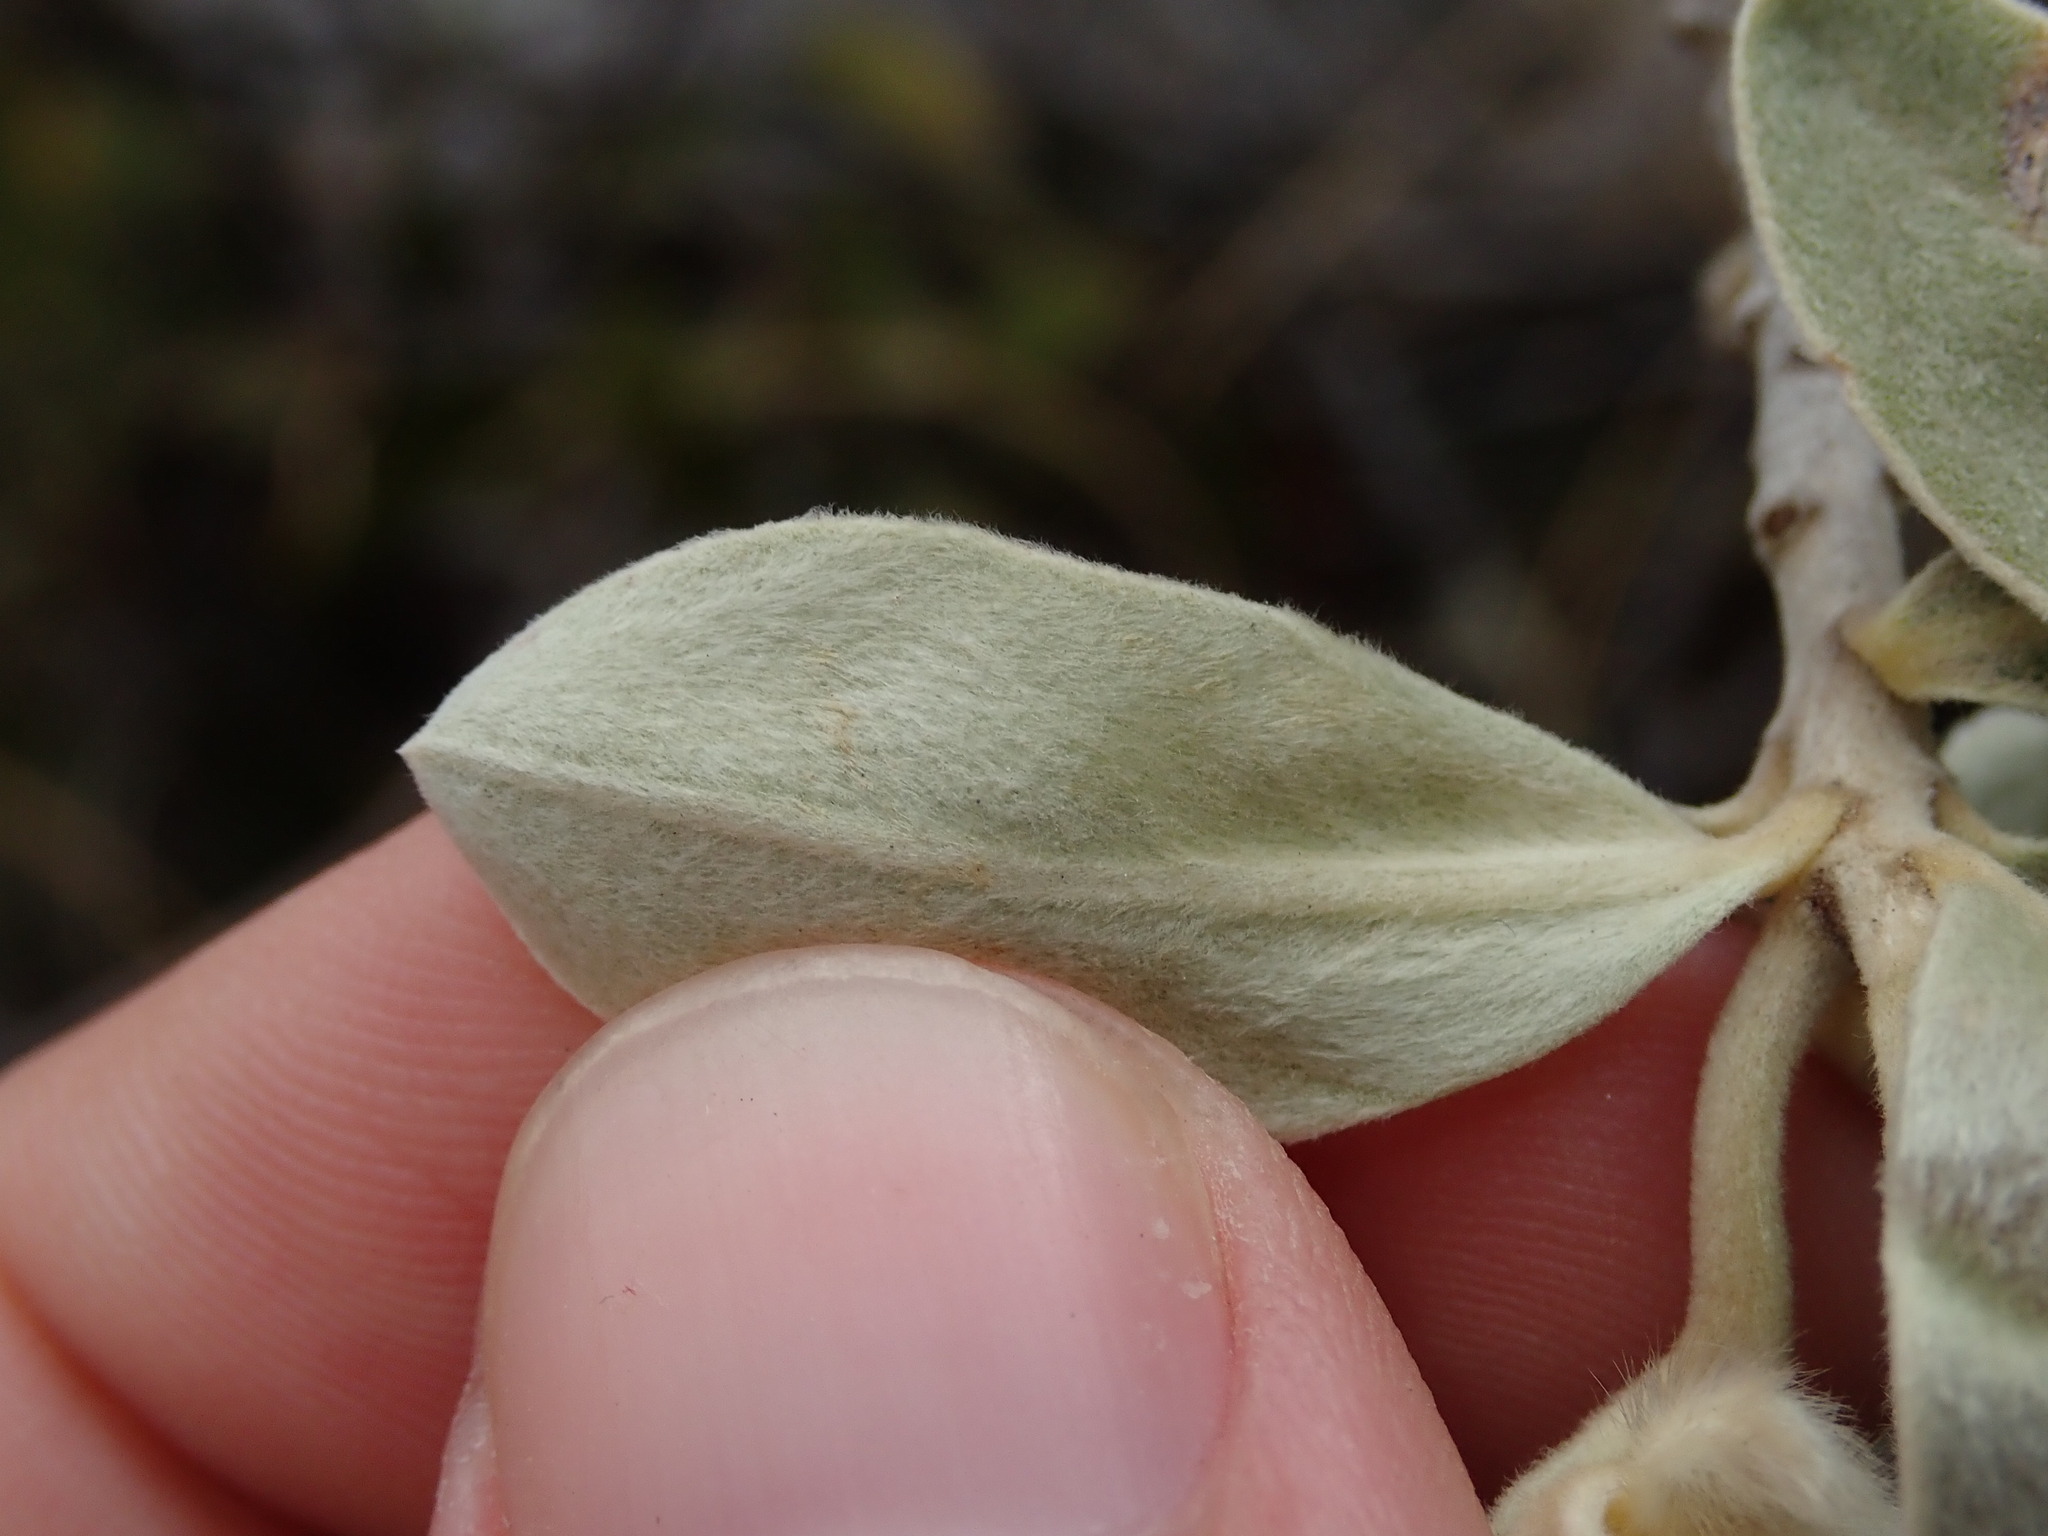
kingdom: Plantae
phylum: Tracheophyta
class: Magnoliopsida
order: Malvales
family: Thymelaeaceae
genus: Ovidia
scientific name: Ovidia sericea
